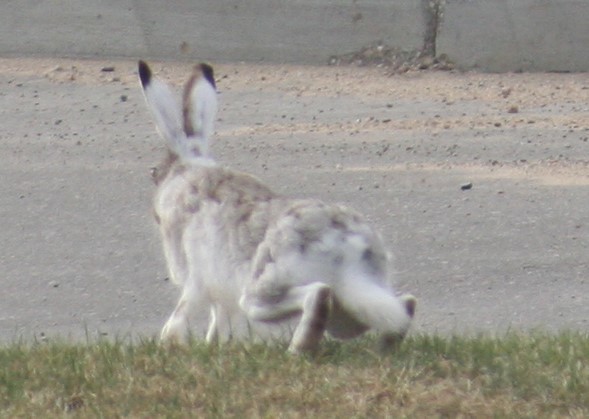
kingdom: Animalia
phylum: Chordata
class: Mammalia
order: Lagomorpha
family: Leporidae
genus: Lepus
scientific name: Lepus townsendii
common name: White-tailed jackrabbit
